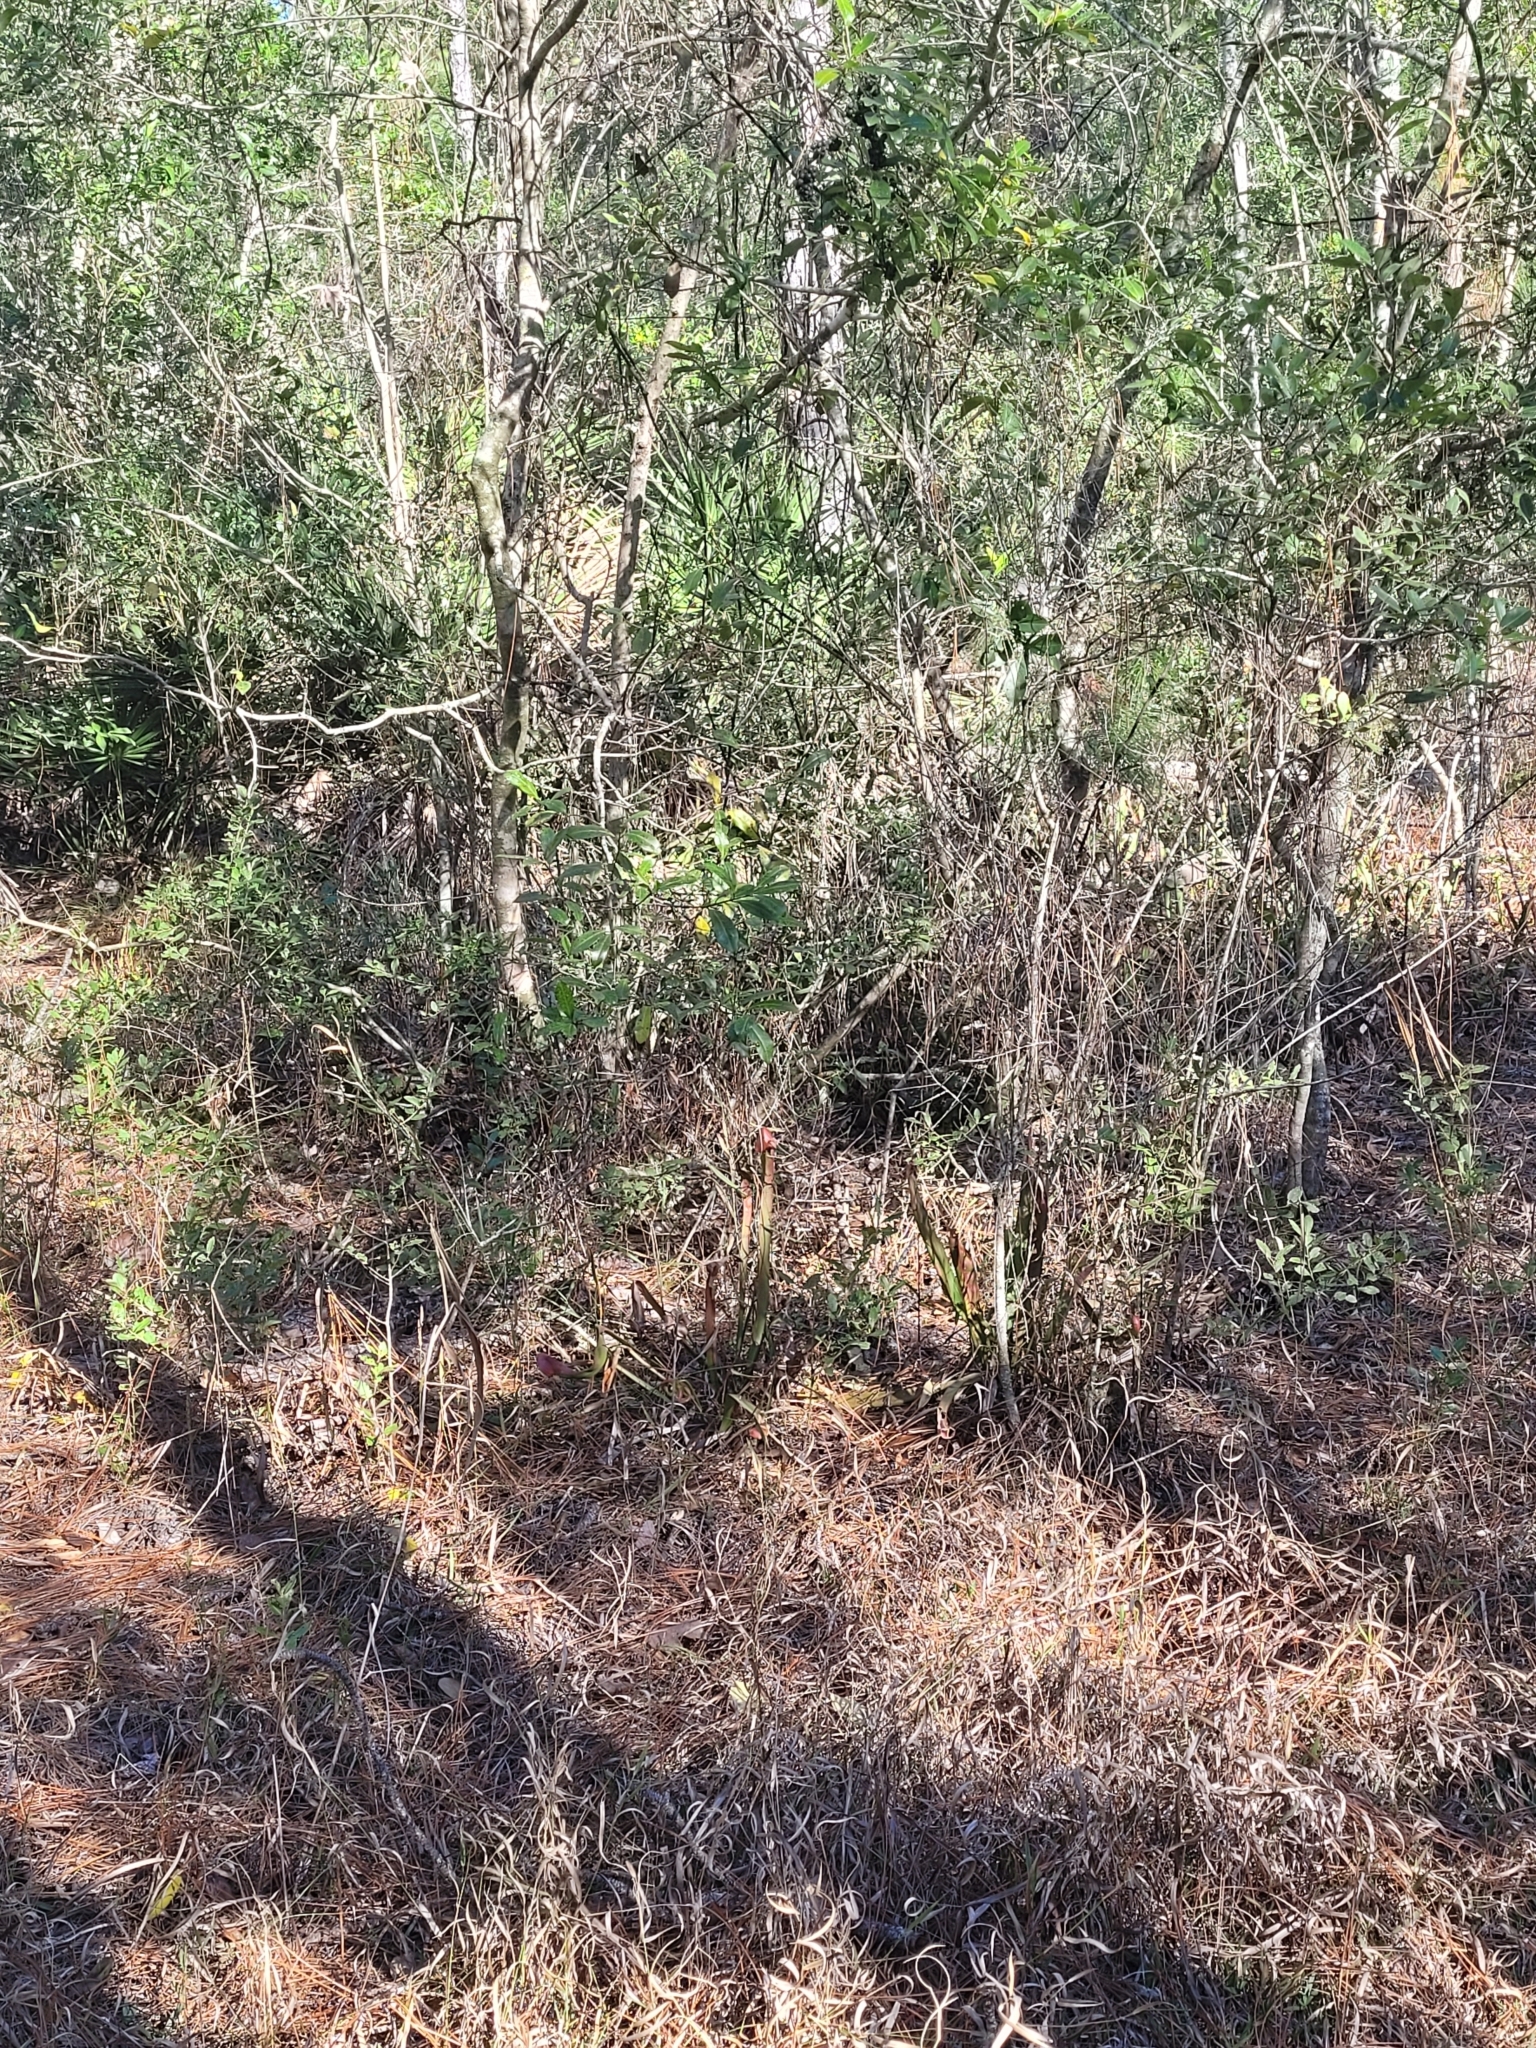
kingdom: Plantae
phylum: Tracheophyta
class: Magnoliopsida
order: Ericales
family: Sarraceniaceae
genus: Sarracenia
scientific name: Sarracenia minor
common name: Rainhat-trumpet
